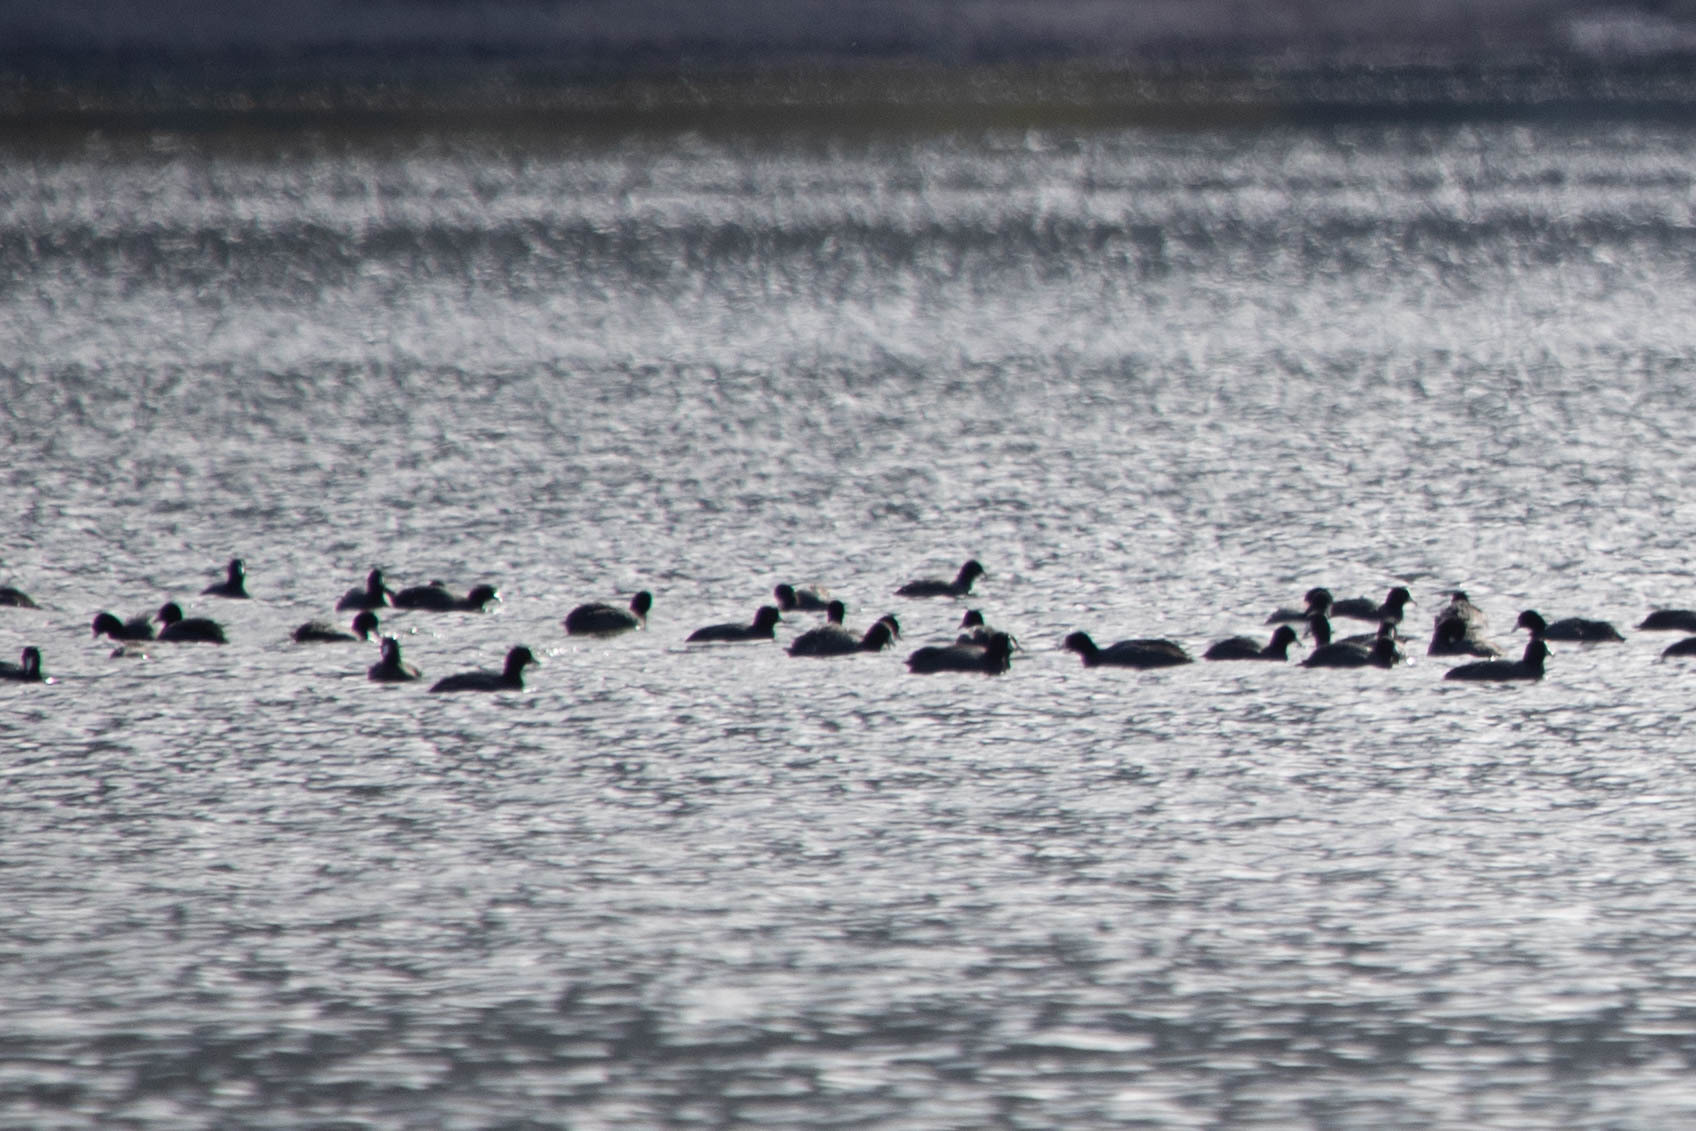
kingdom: Animalia
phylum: Chordata
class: Aves
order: Gruiformes
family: Rallidae
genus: Fulica
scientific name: Fulica americana
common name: American coot
